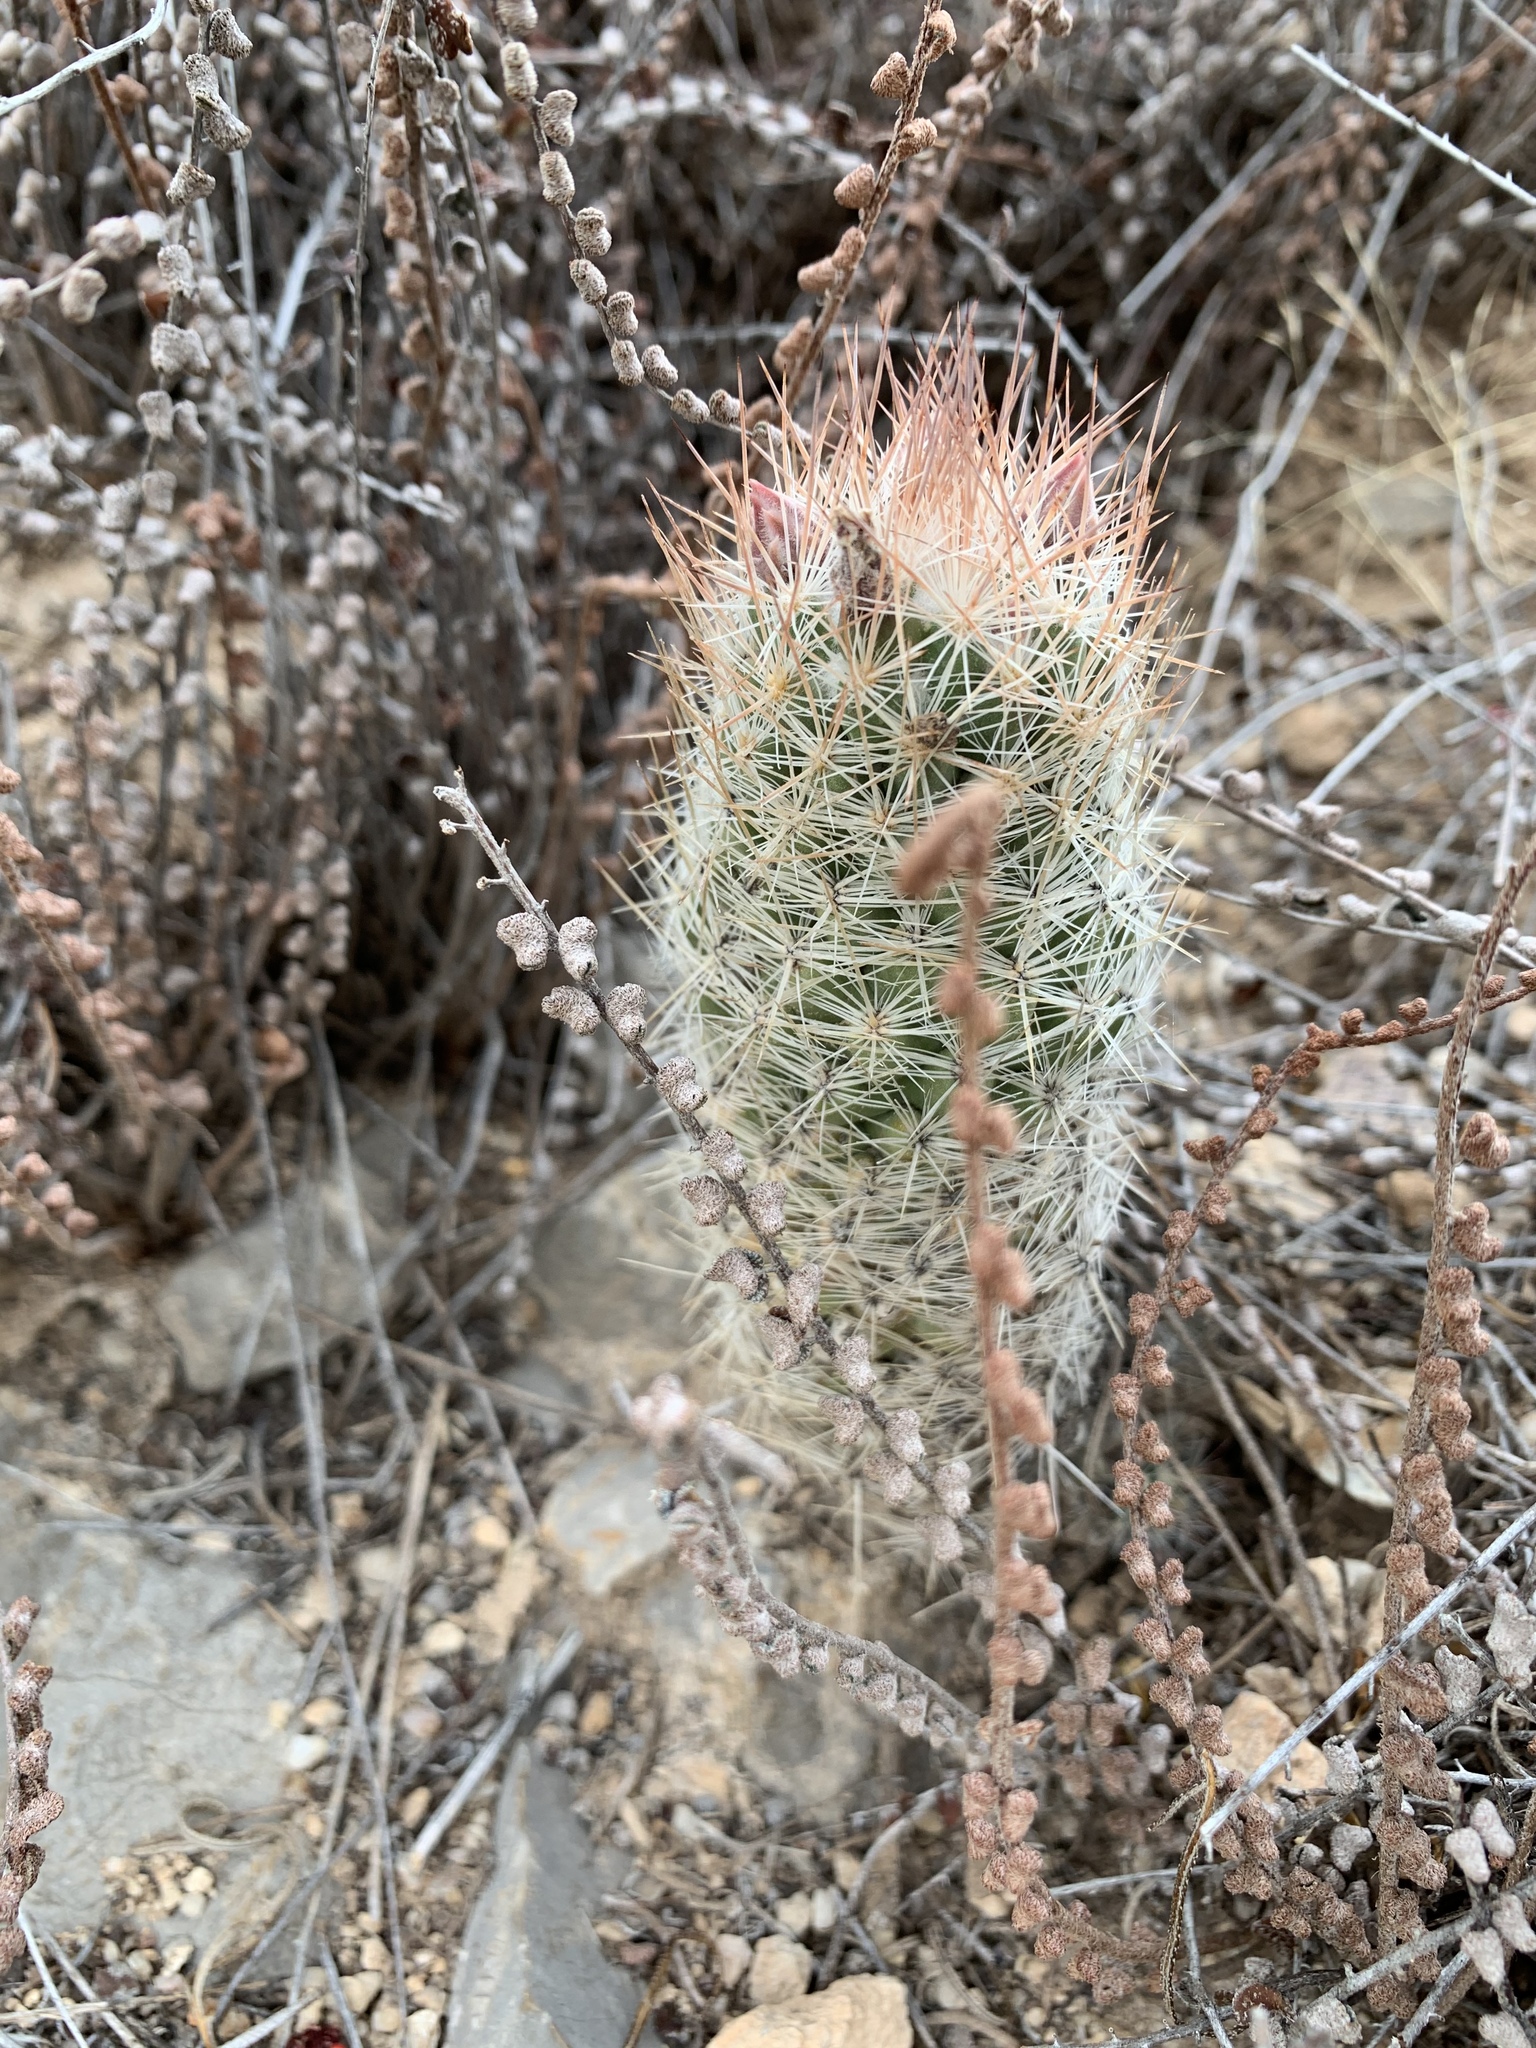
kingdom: Plantae
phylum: Tracheophyta
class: Magnoliopsida
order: Caryophyllales
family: Cactaceae
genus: Pelecyphora
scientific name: Pelecyphora tuberculosa
